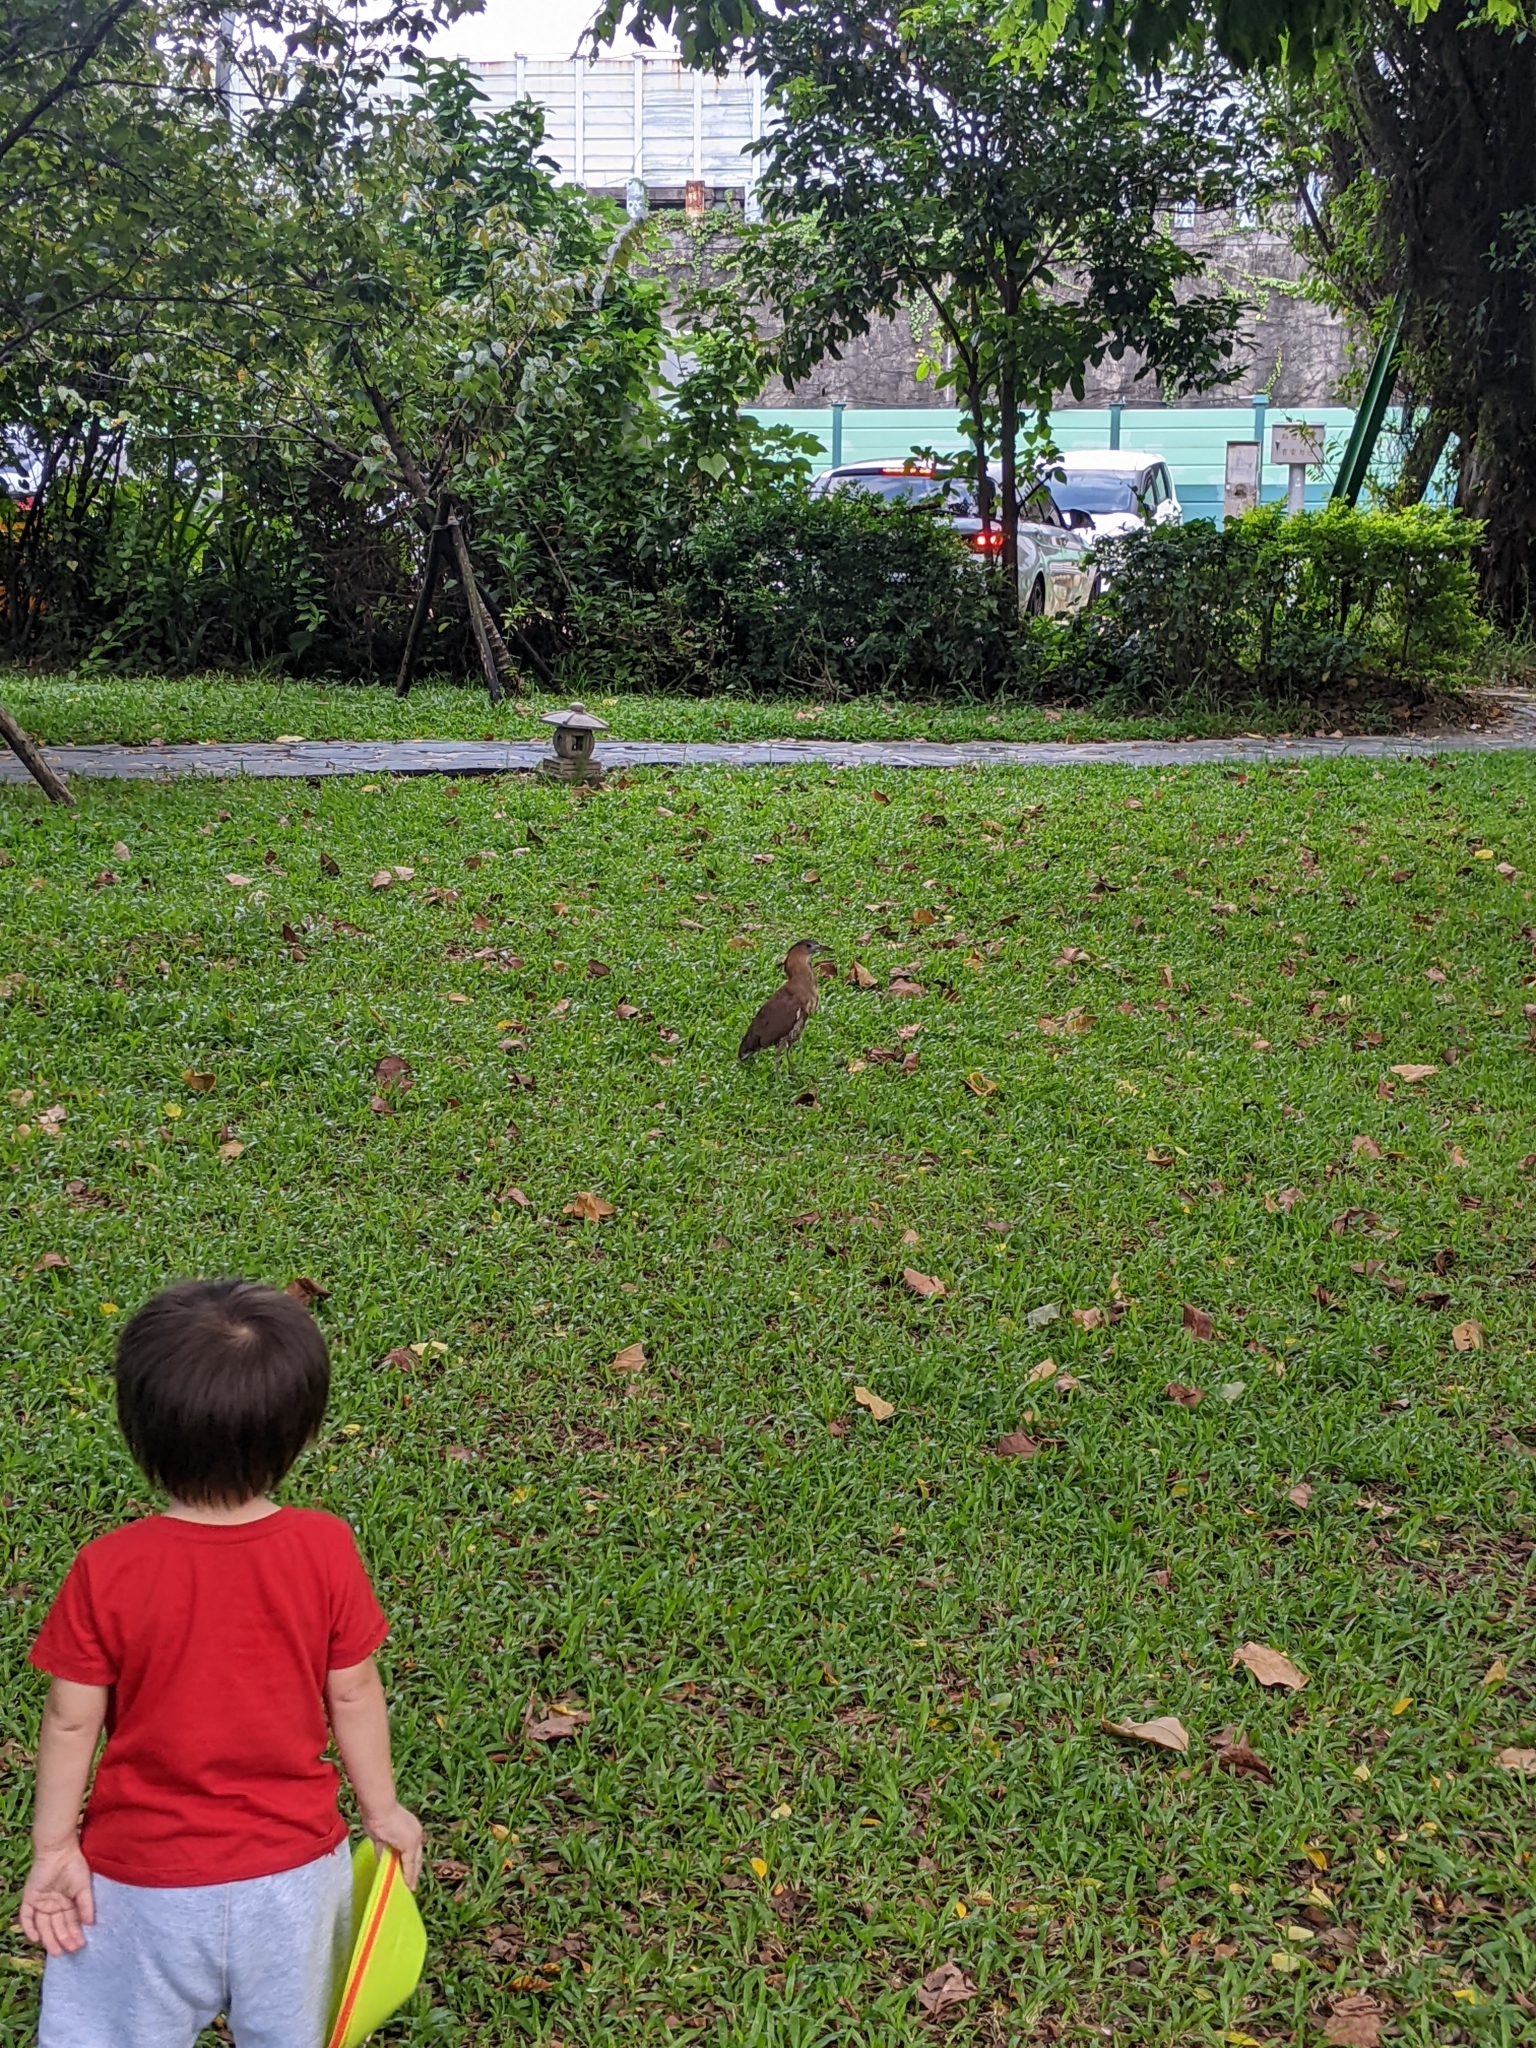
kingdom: Animalia
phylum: Chordata
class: Aves
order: Pelecaniformes
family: Ardeidae
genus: Gorsachius
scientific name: Gorsachius melanolophus
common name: Malayan night heron
